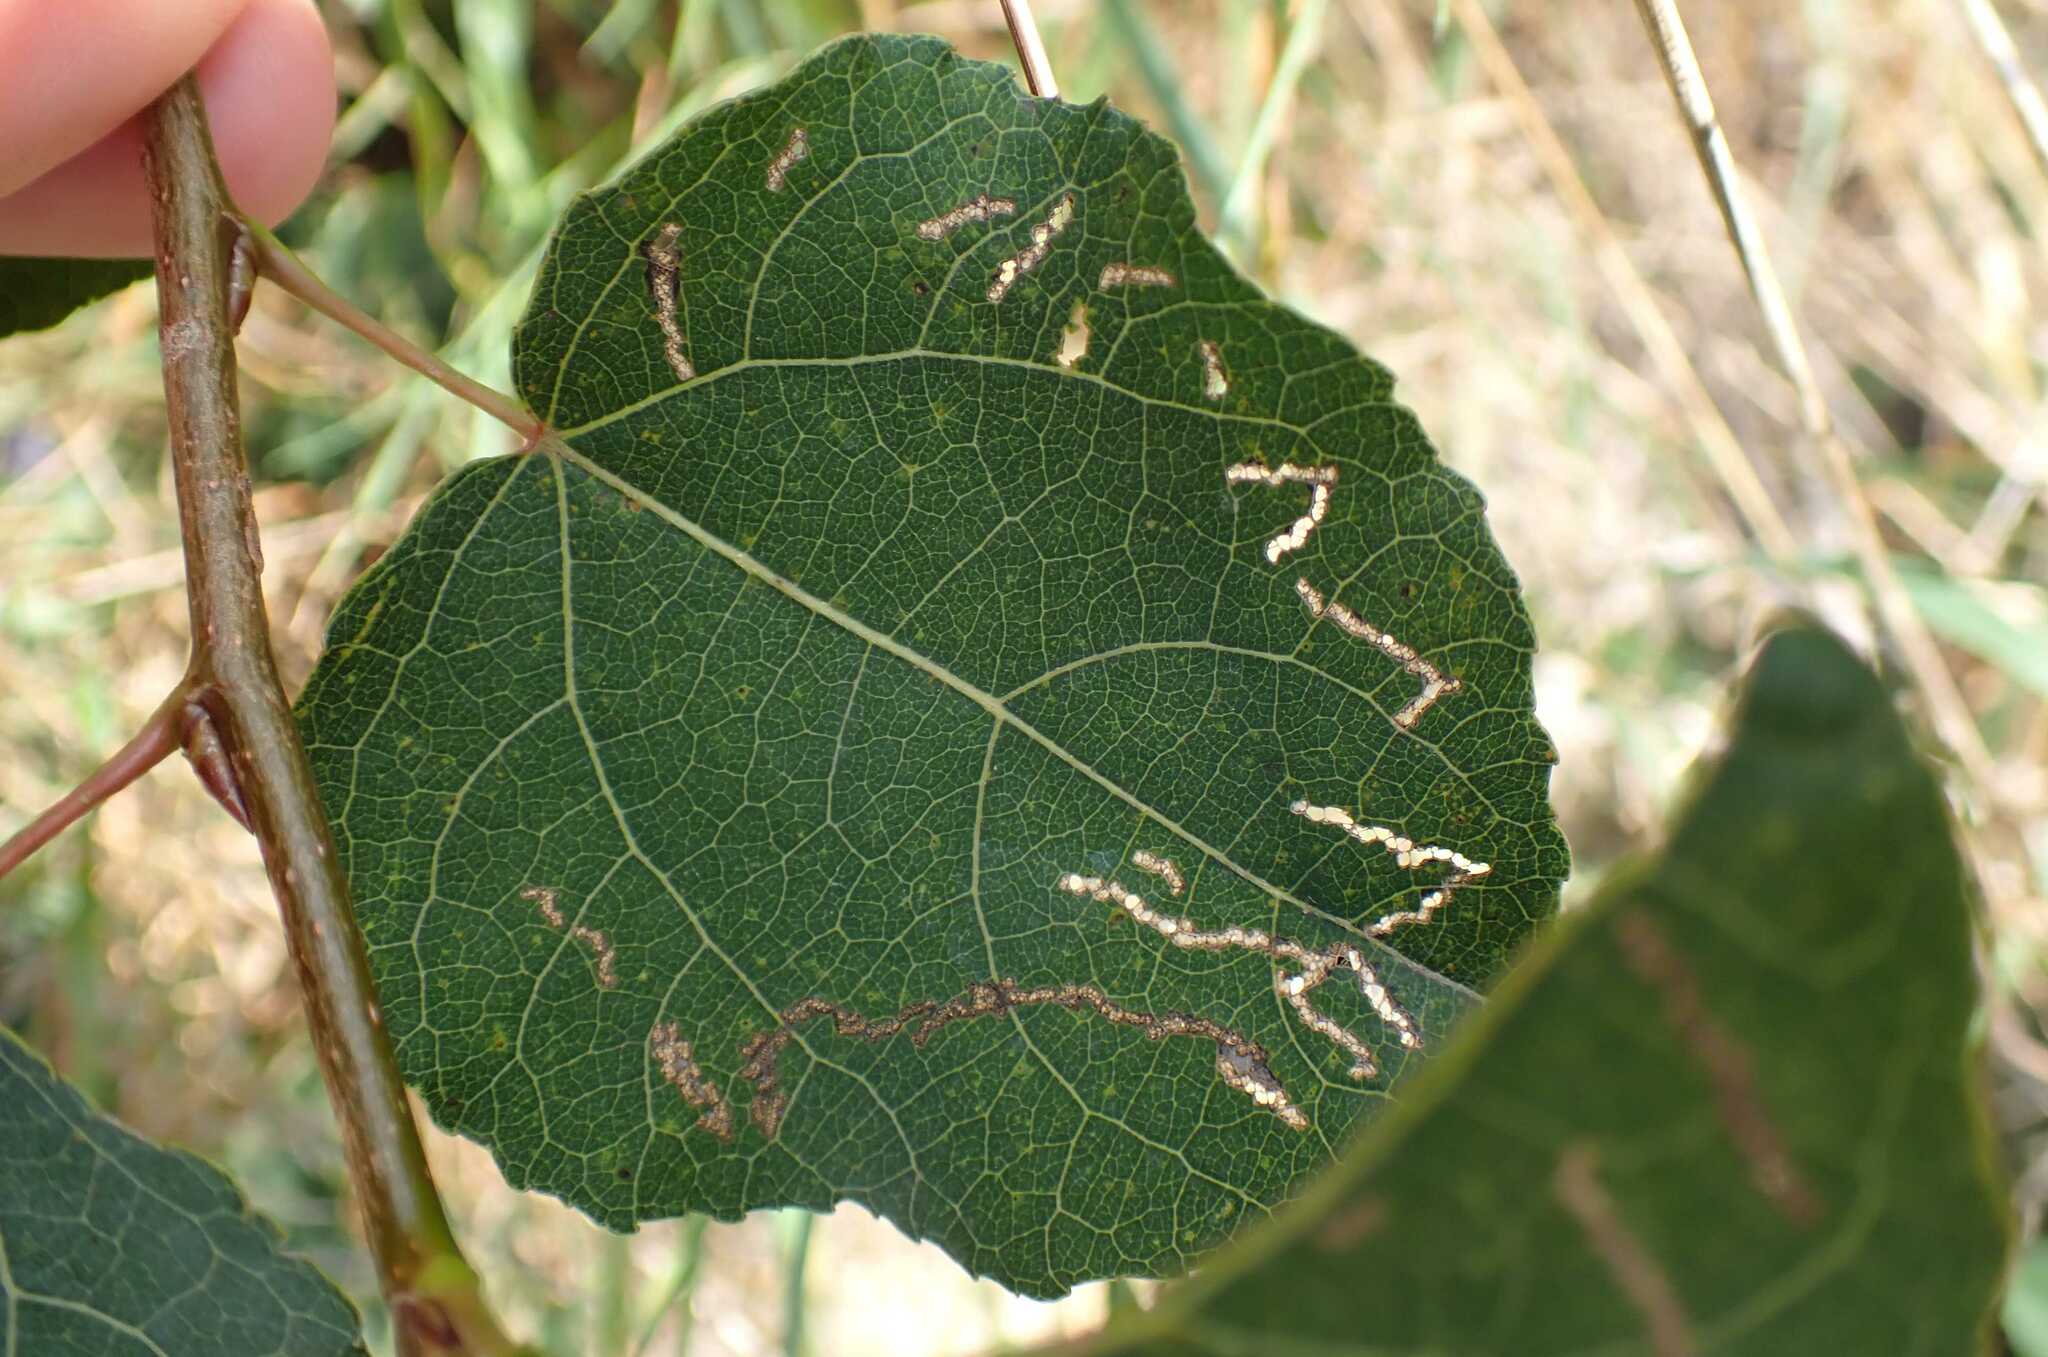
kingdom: Animalia
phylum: Arthropoda
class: Insecta
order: Coleoptera
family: Attelabidae
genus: Byctiscus
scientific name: Byctiscus populi
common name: Leaf-rolling weevil
